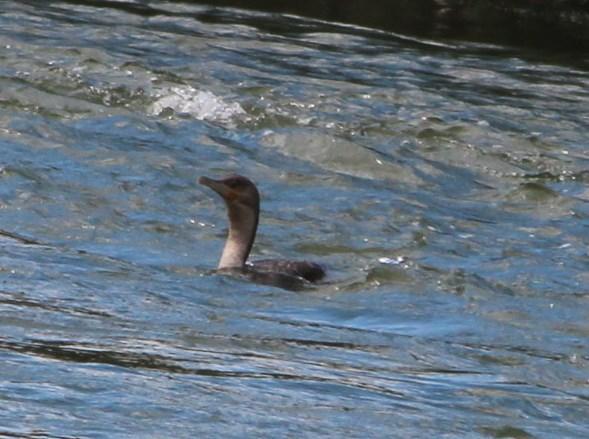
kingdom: Animalia
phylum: Chordata
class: Aves
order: Suliformes
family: Phalacrocoracidae
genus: Phalacrocorax
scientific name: Phalacrocorax carbo
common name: Great cormorant
